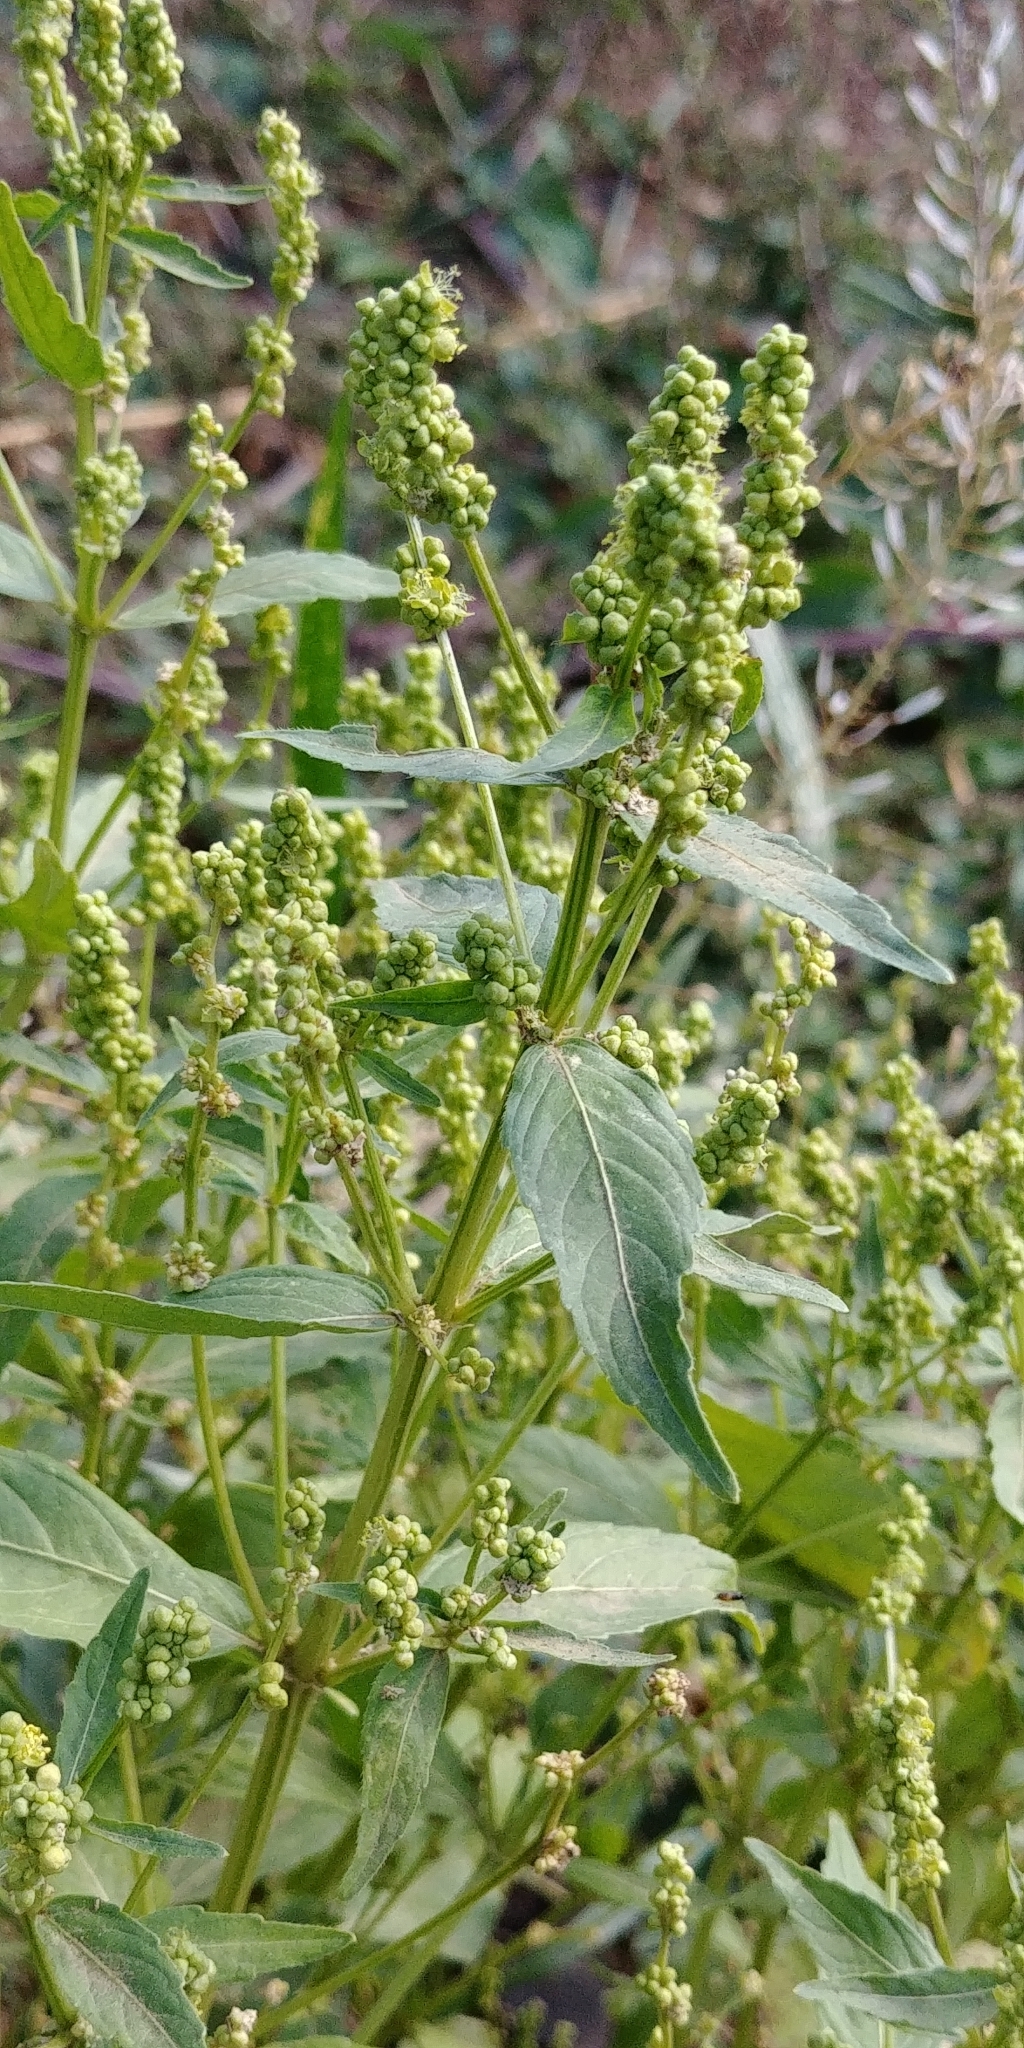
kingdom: Plantae
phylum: Tracheophyta
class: Magnoliopsida
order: Malpighiales
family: Euphorbiaceae
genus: Mercurialis
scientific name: Mercurialis annua
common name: Annual mercury
